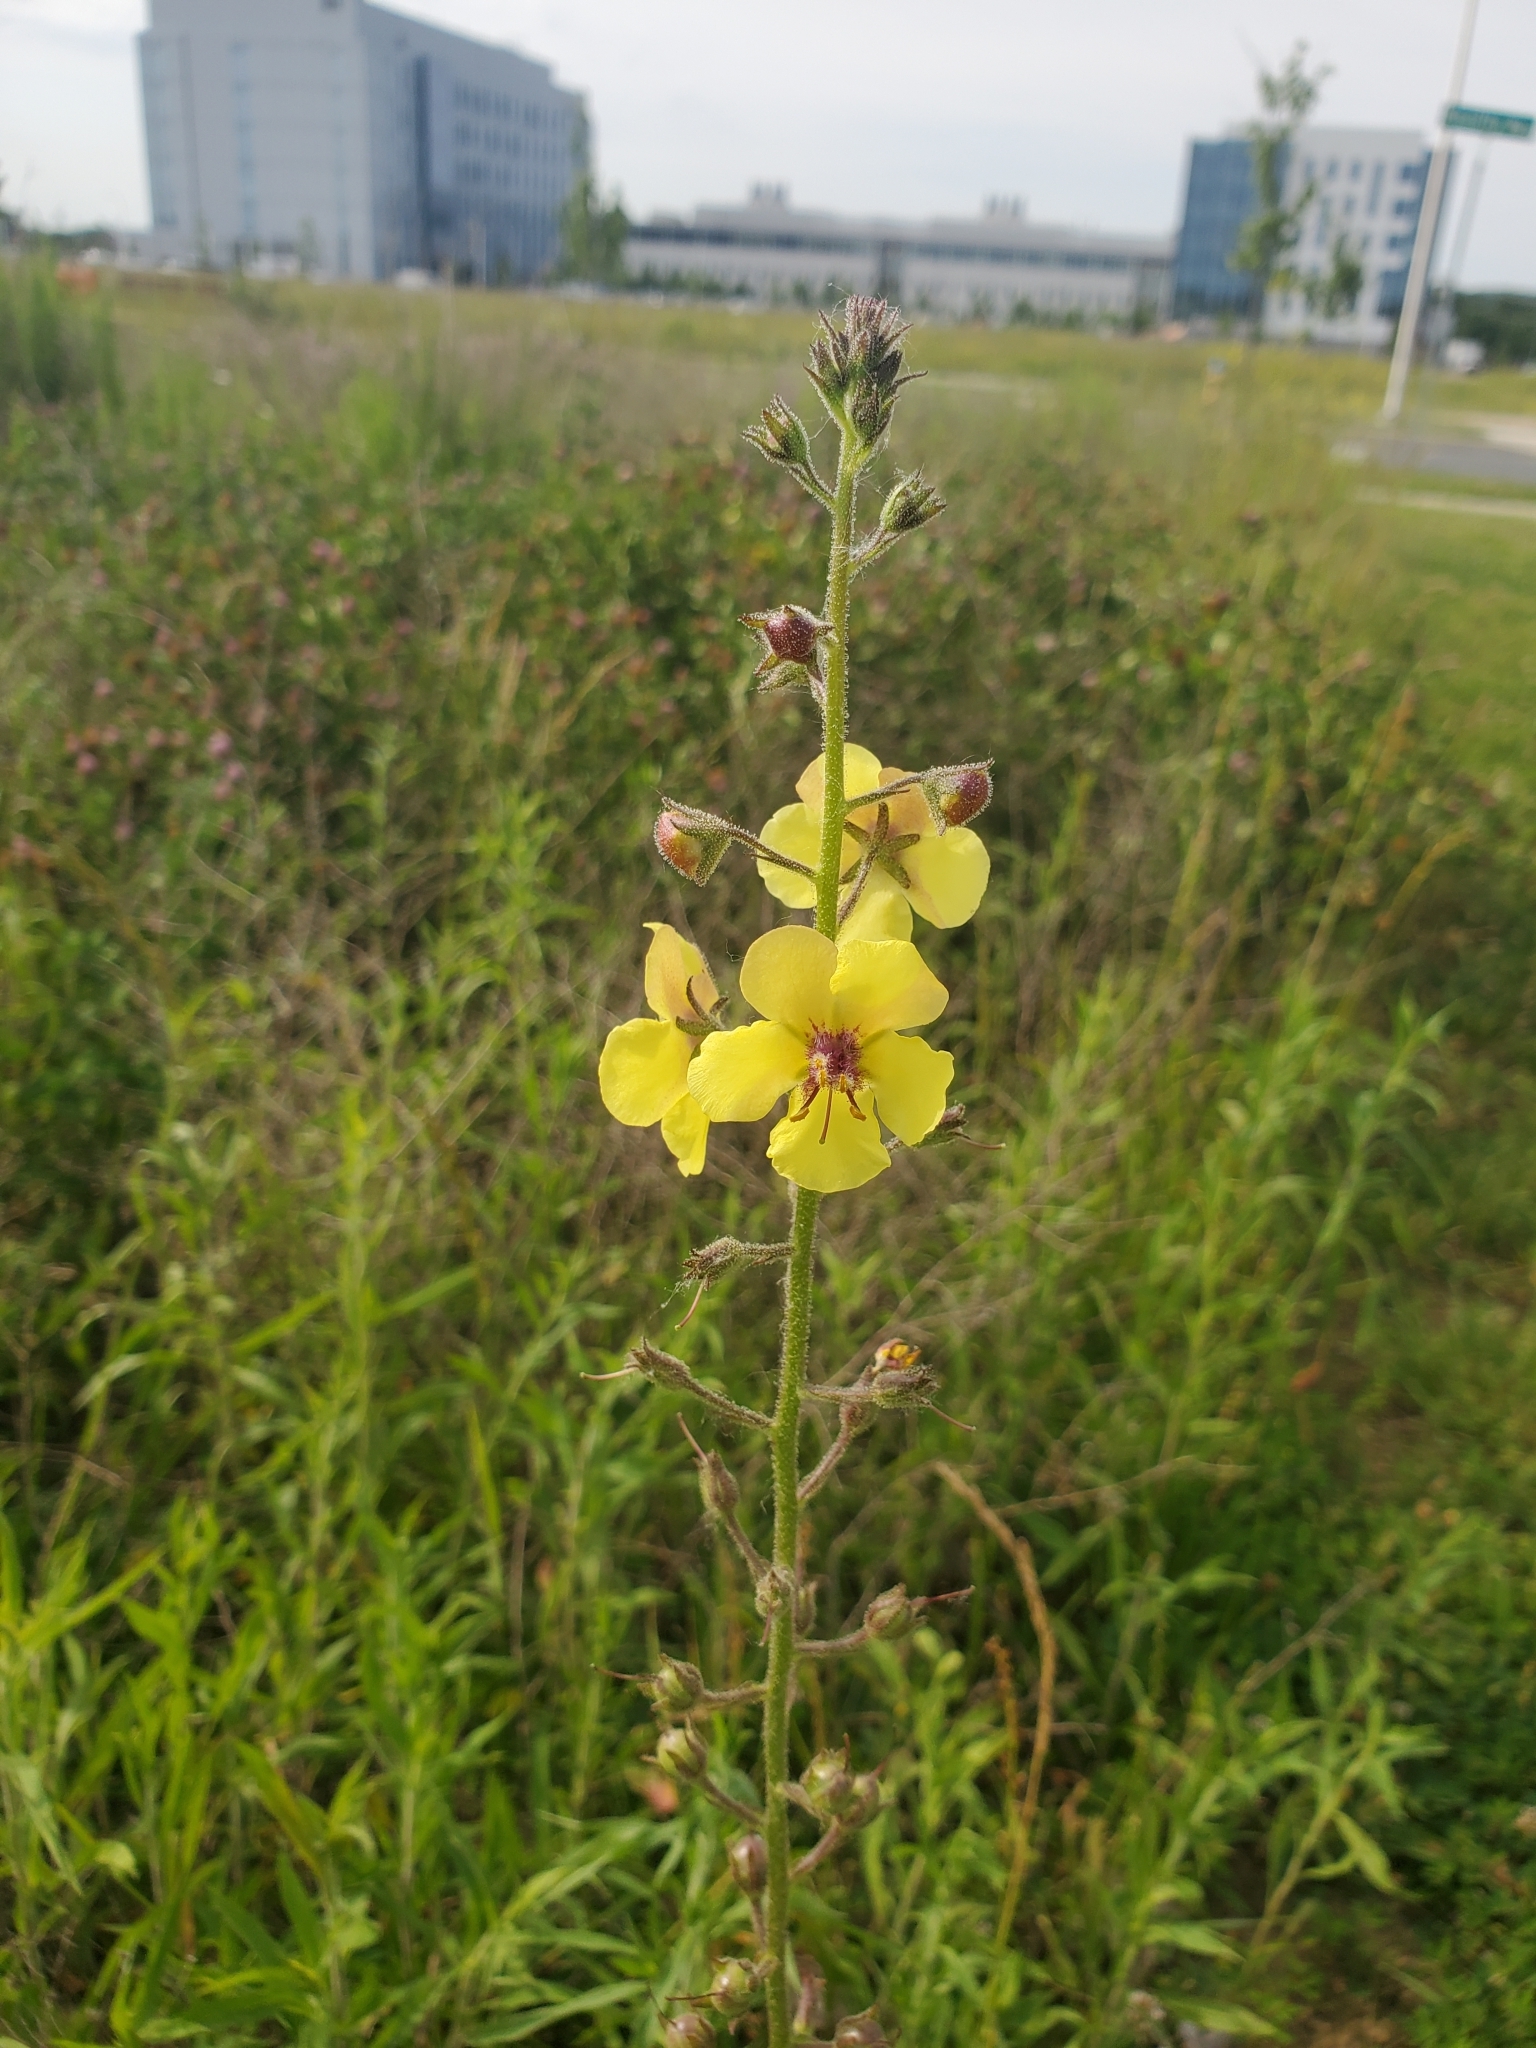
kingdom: Plantae
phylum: Tracheophyta
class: Magnoliopsida
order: Lamiales
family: Scrophulariaceae
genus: Verbascum
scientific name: Verbascum blattaria
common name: Moth mullein
